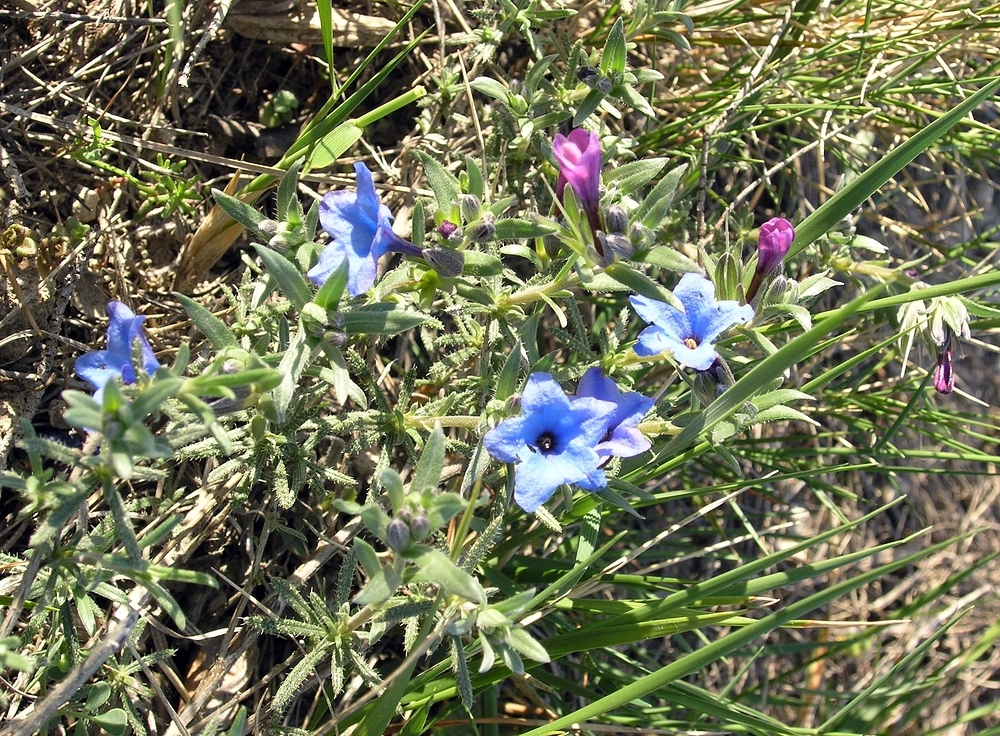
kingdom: Plantae
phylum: Tracheophyta
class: Magnoliopsida
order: Boraginales
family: Boraginaceae
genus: Lithodora
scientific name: Lithodora fruticosa
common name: Shrubby gromwell
